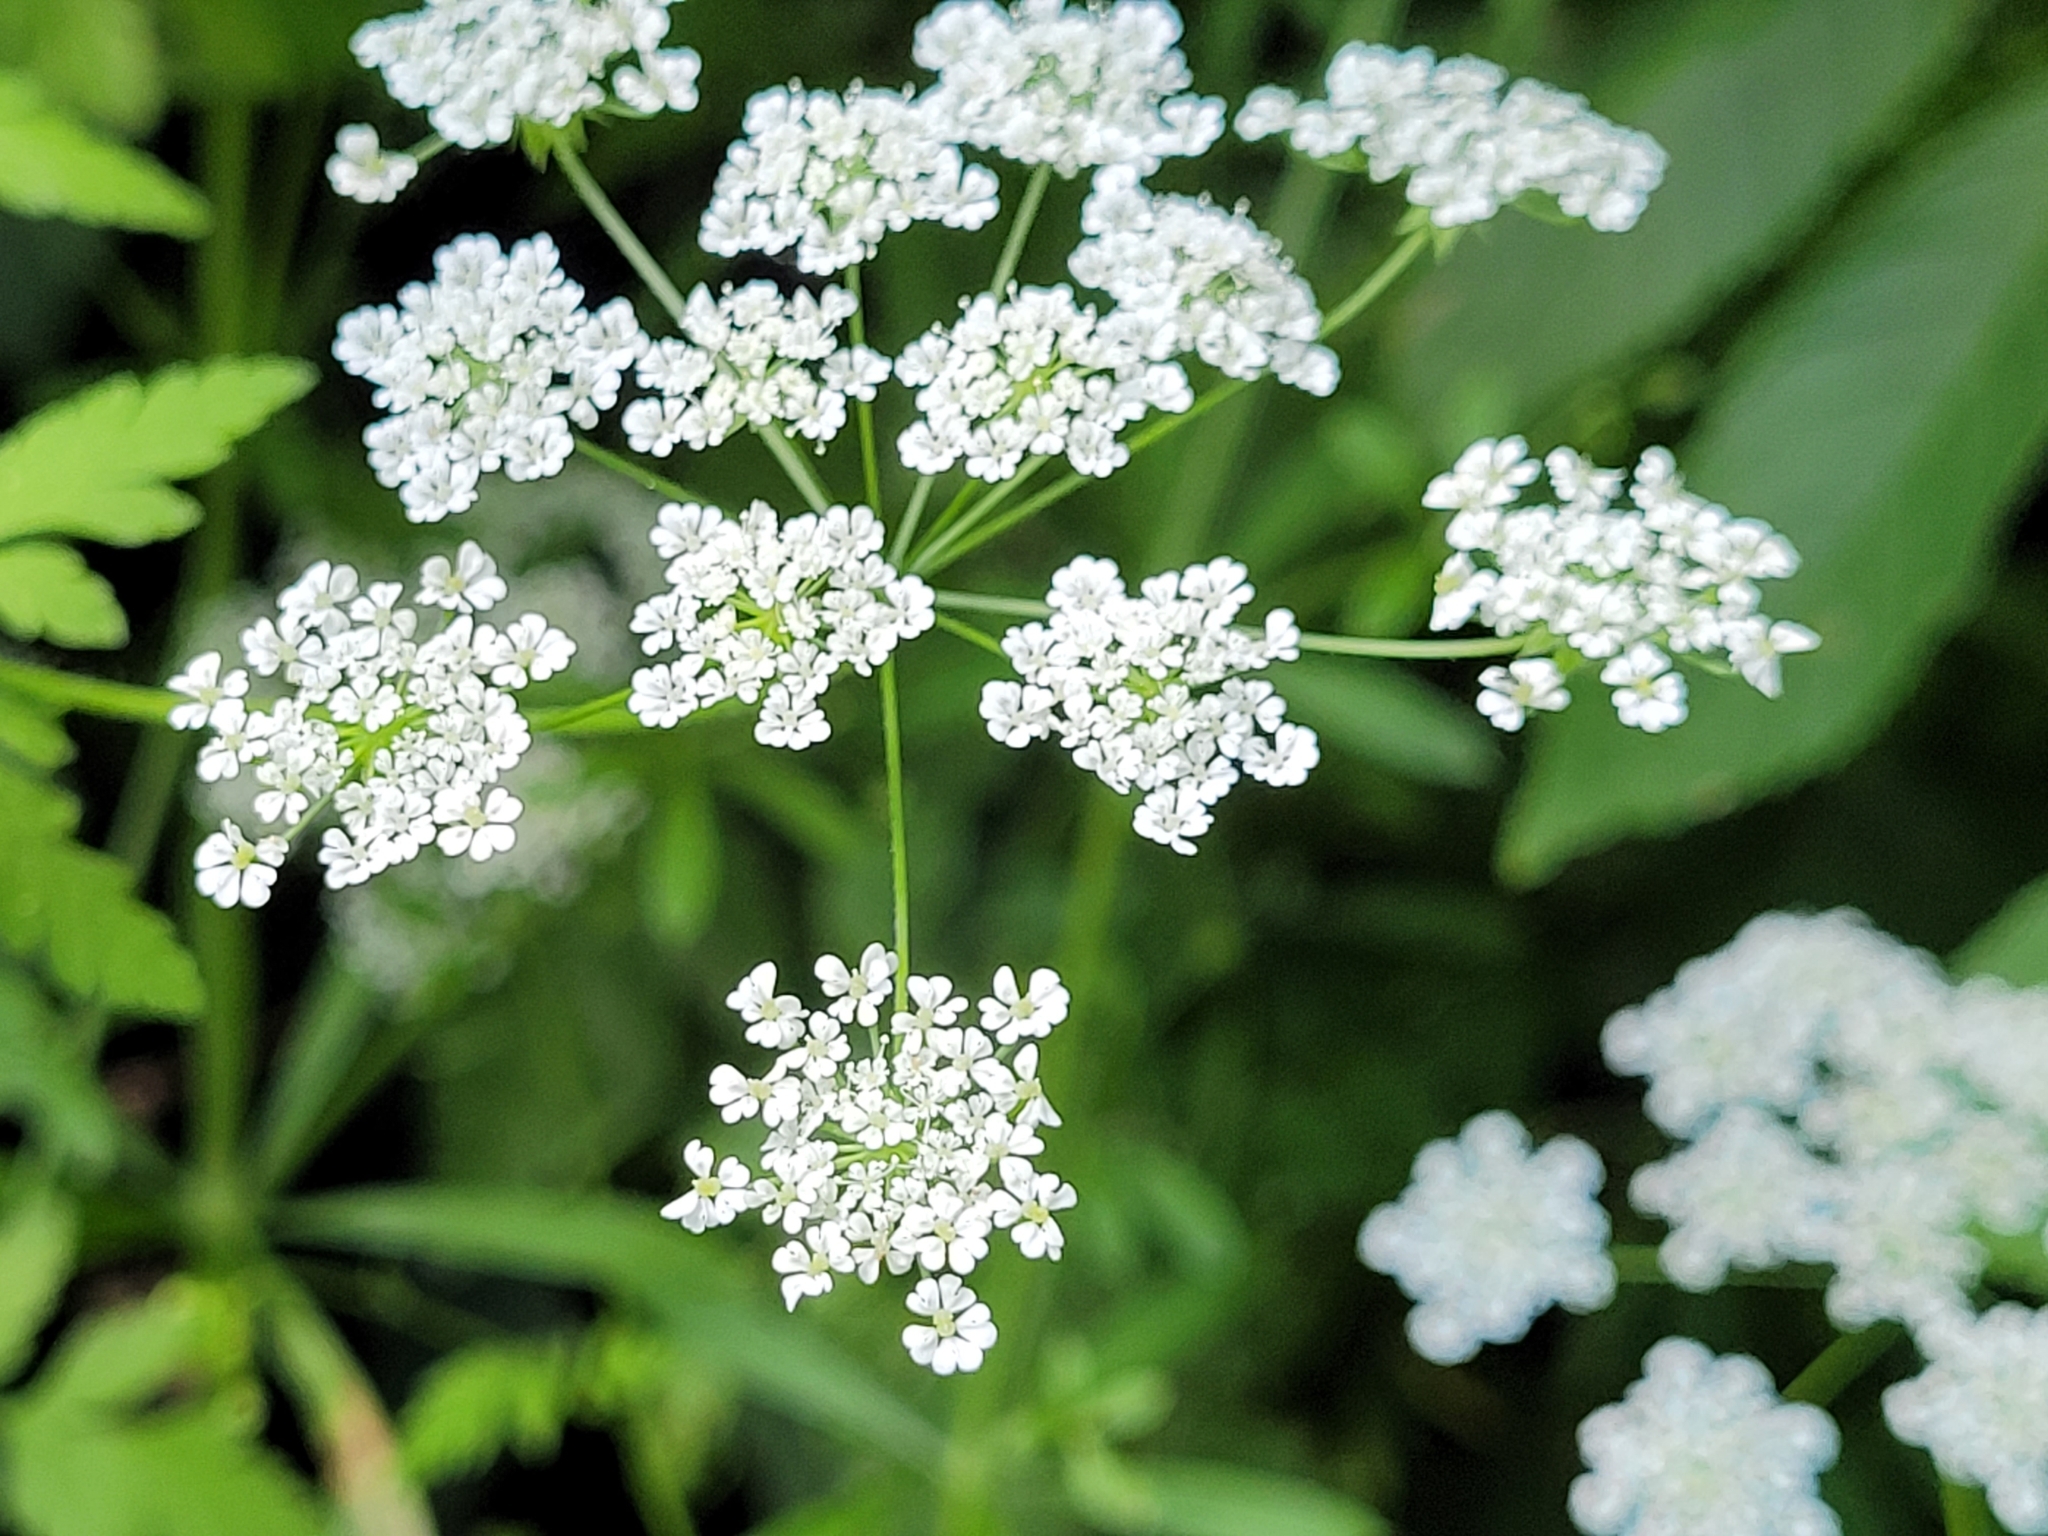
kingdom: Plantae
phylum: Tracheophyta
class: Magnoliopsida
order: Apiales
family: Apiaceae
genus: Chaerophyllum
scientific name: Chaerophyllum temulum
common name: Rough chervil
